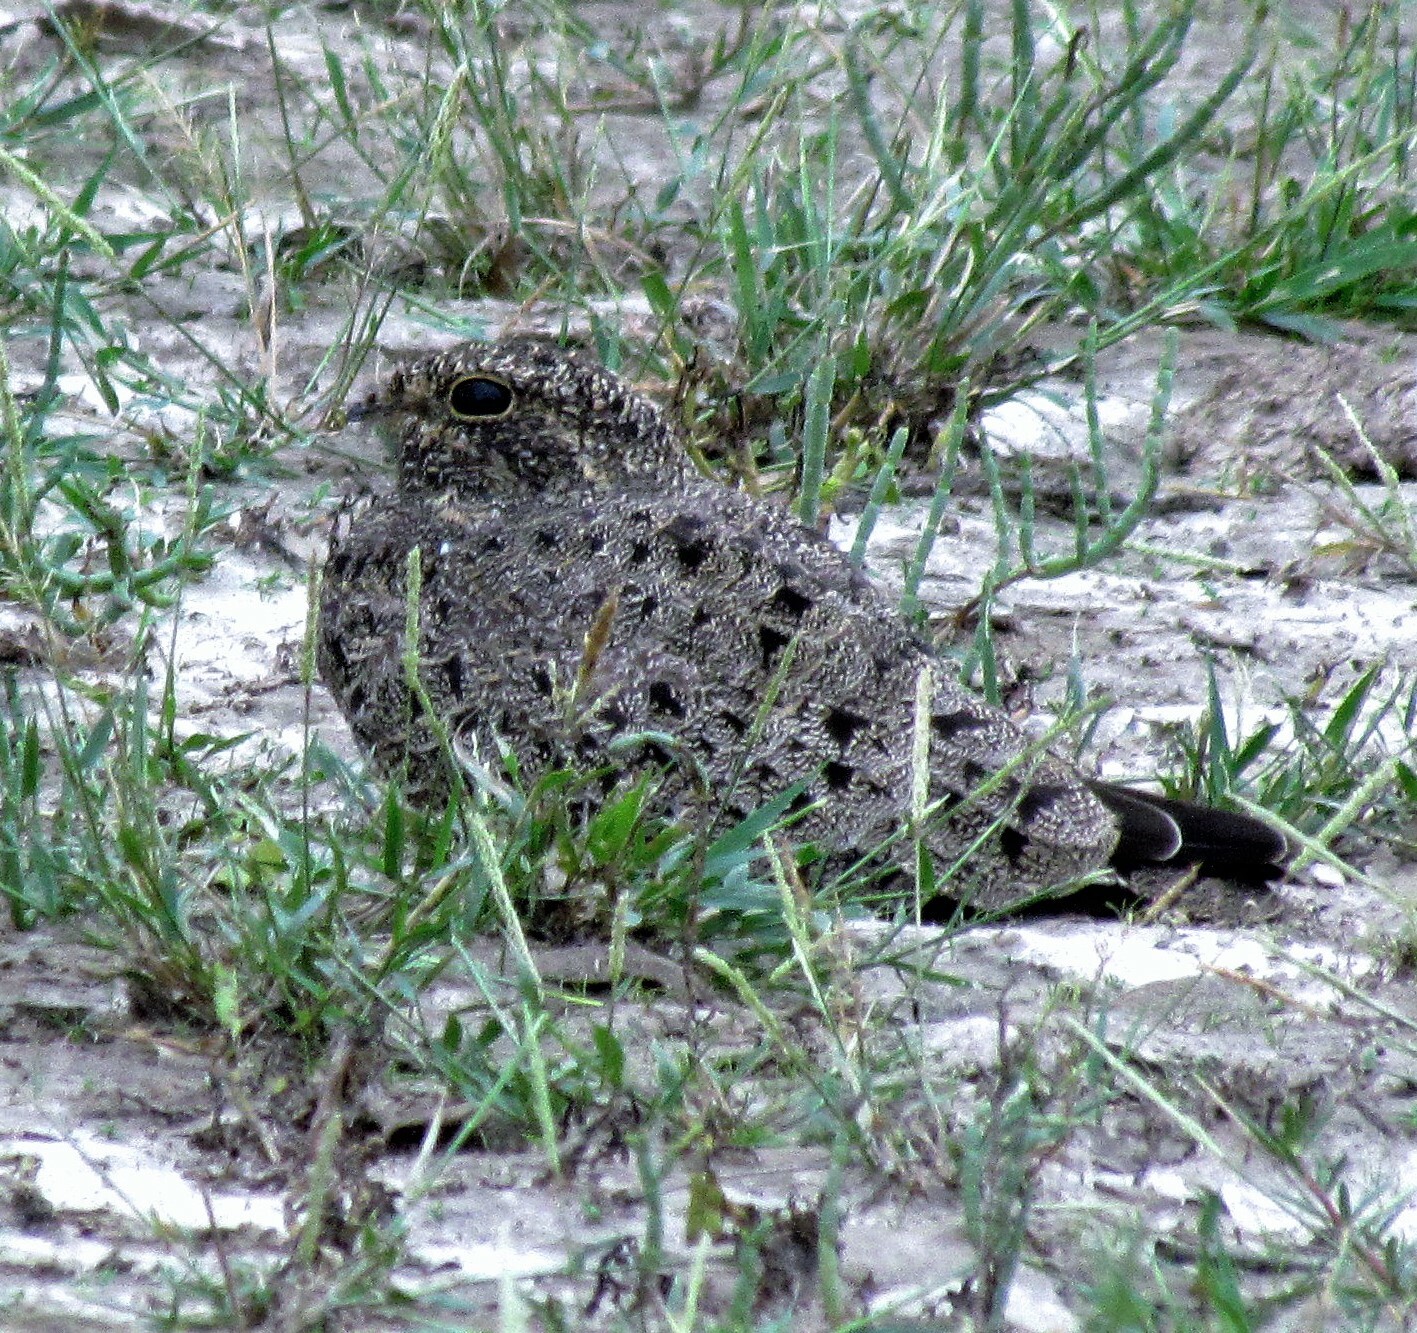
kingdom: Animalia
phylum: Chordata
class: Aves
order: Caprimulgiformes
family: Caprimulgidae
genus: Chordeiles
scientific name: Chordeiles nacunda
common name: Nacunda nighthawk
